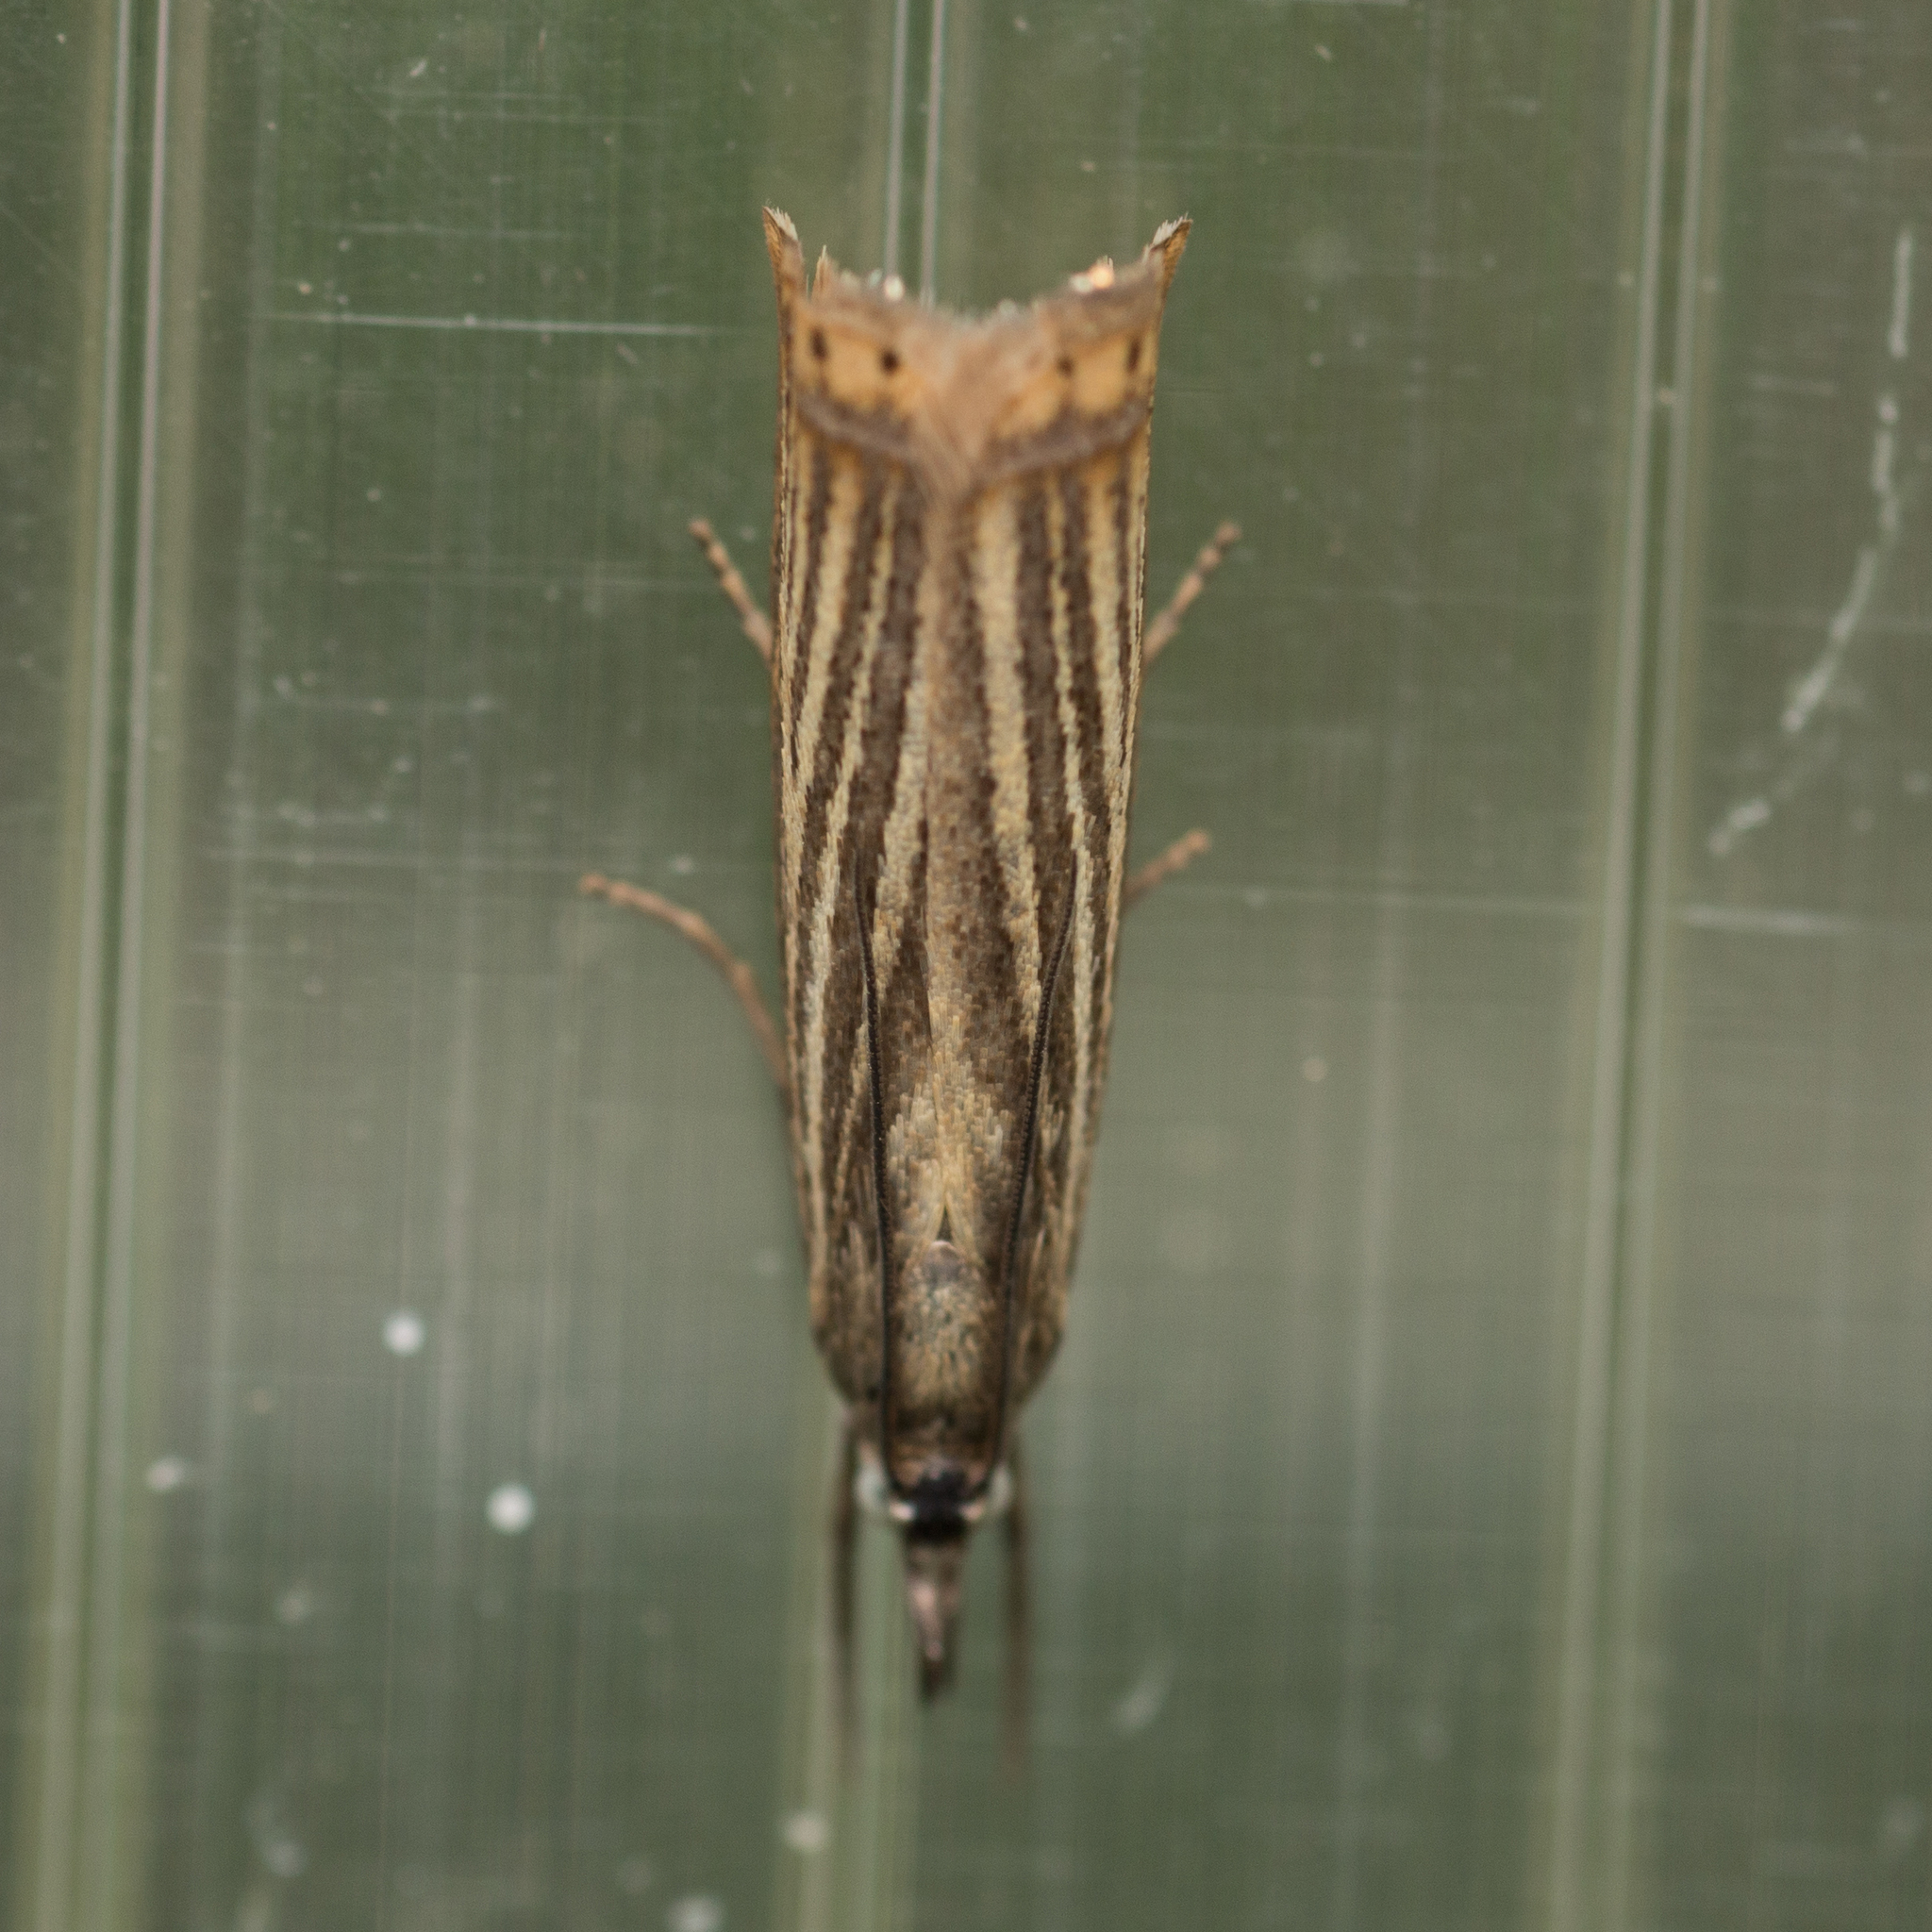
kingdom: Animalia
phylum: Arthropoda
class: Insecta
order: Lepidoptera
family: Crambidae
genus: Chrysoteuchia
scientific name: Chrysoteuchia culmella
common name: Garden grass-veneer
